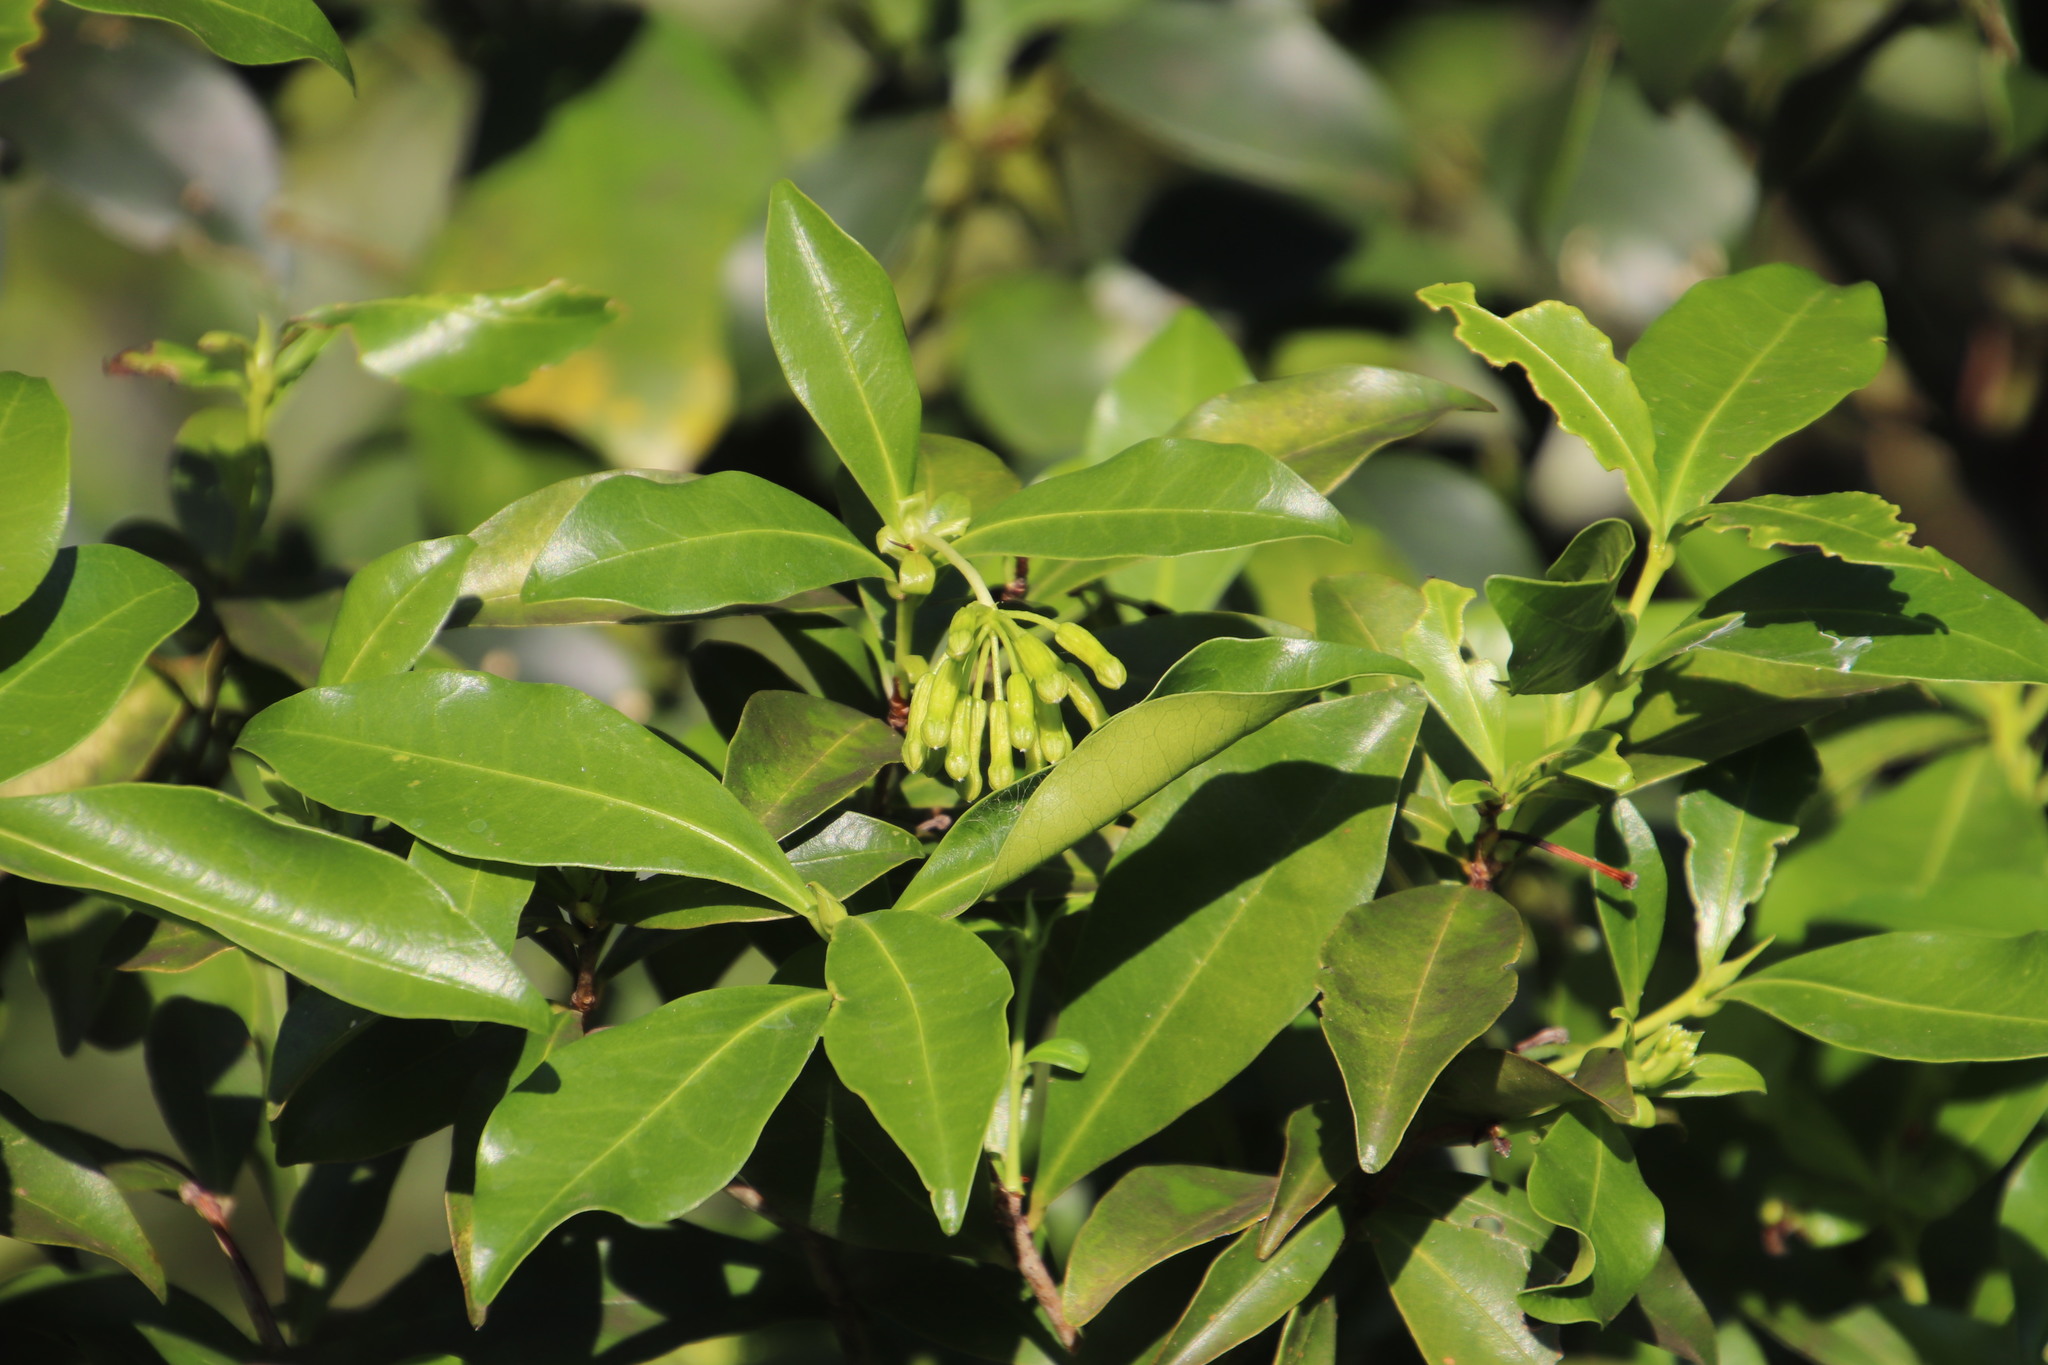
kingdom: Plantae
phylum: Tracheophyta
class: Magnoliopsida
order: Malvales
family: Thymelaeaceae
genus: Peddiea
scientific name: Peddiea africana
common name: Poison olive
